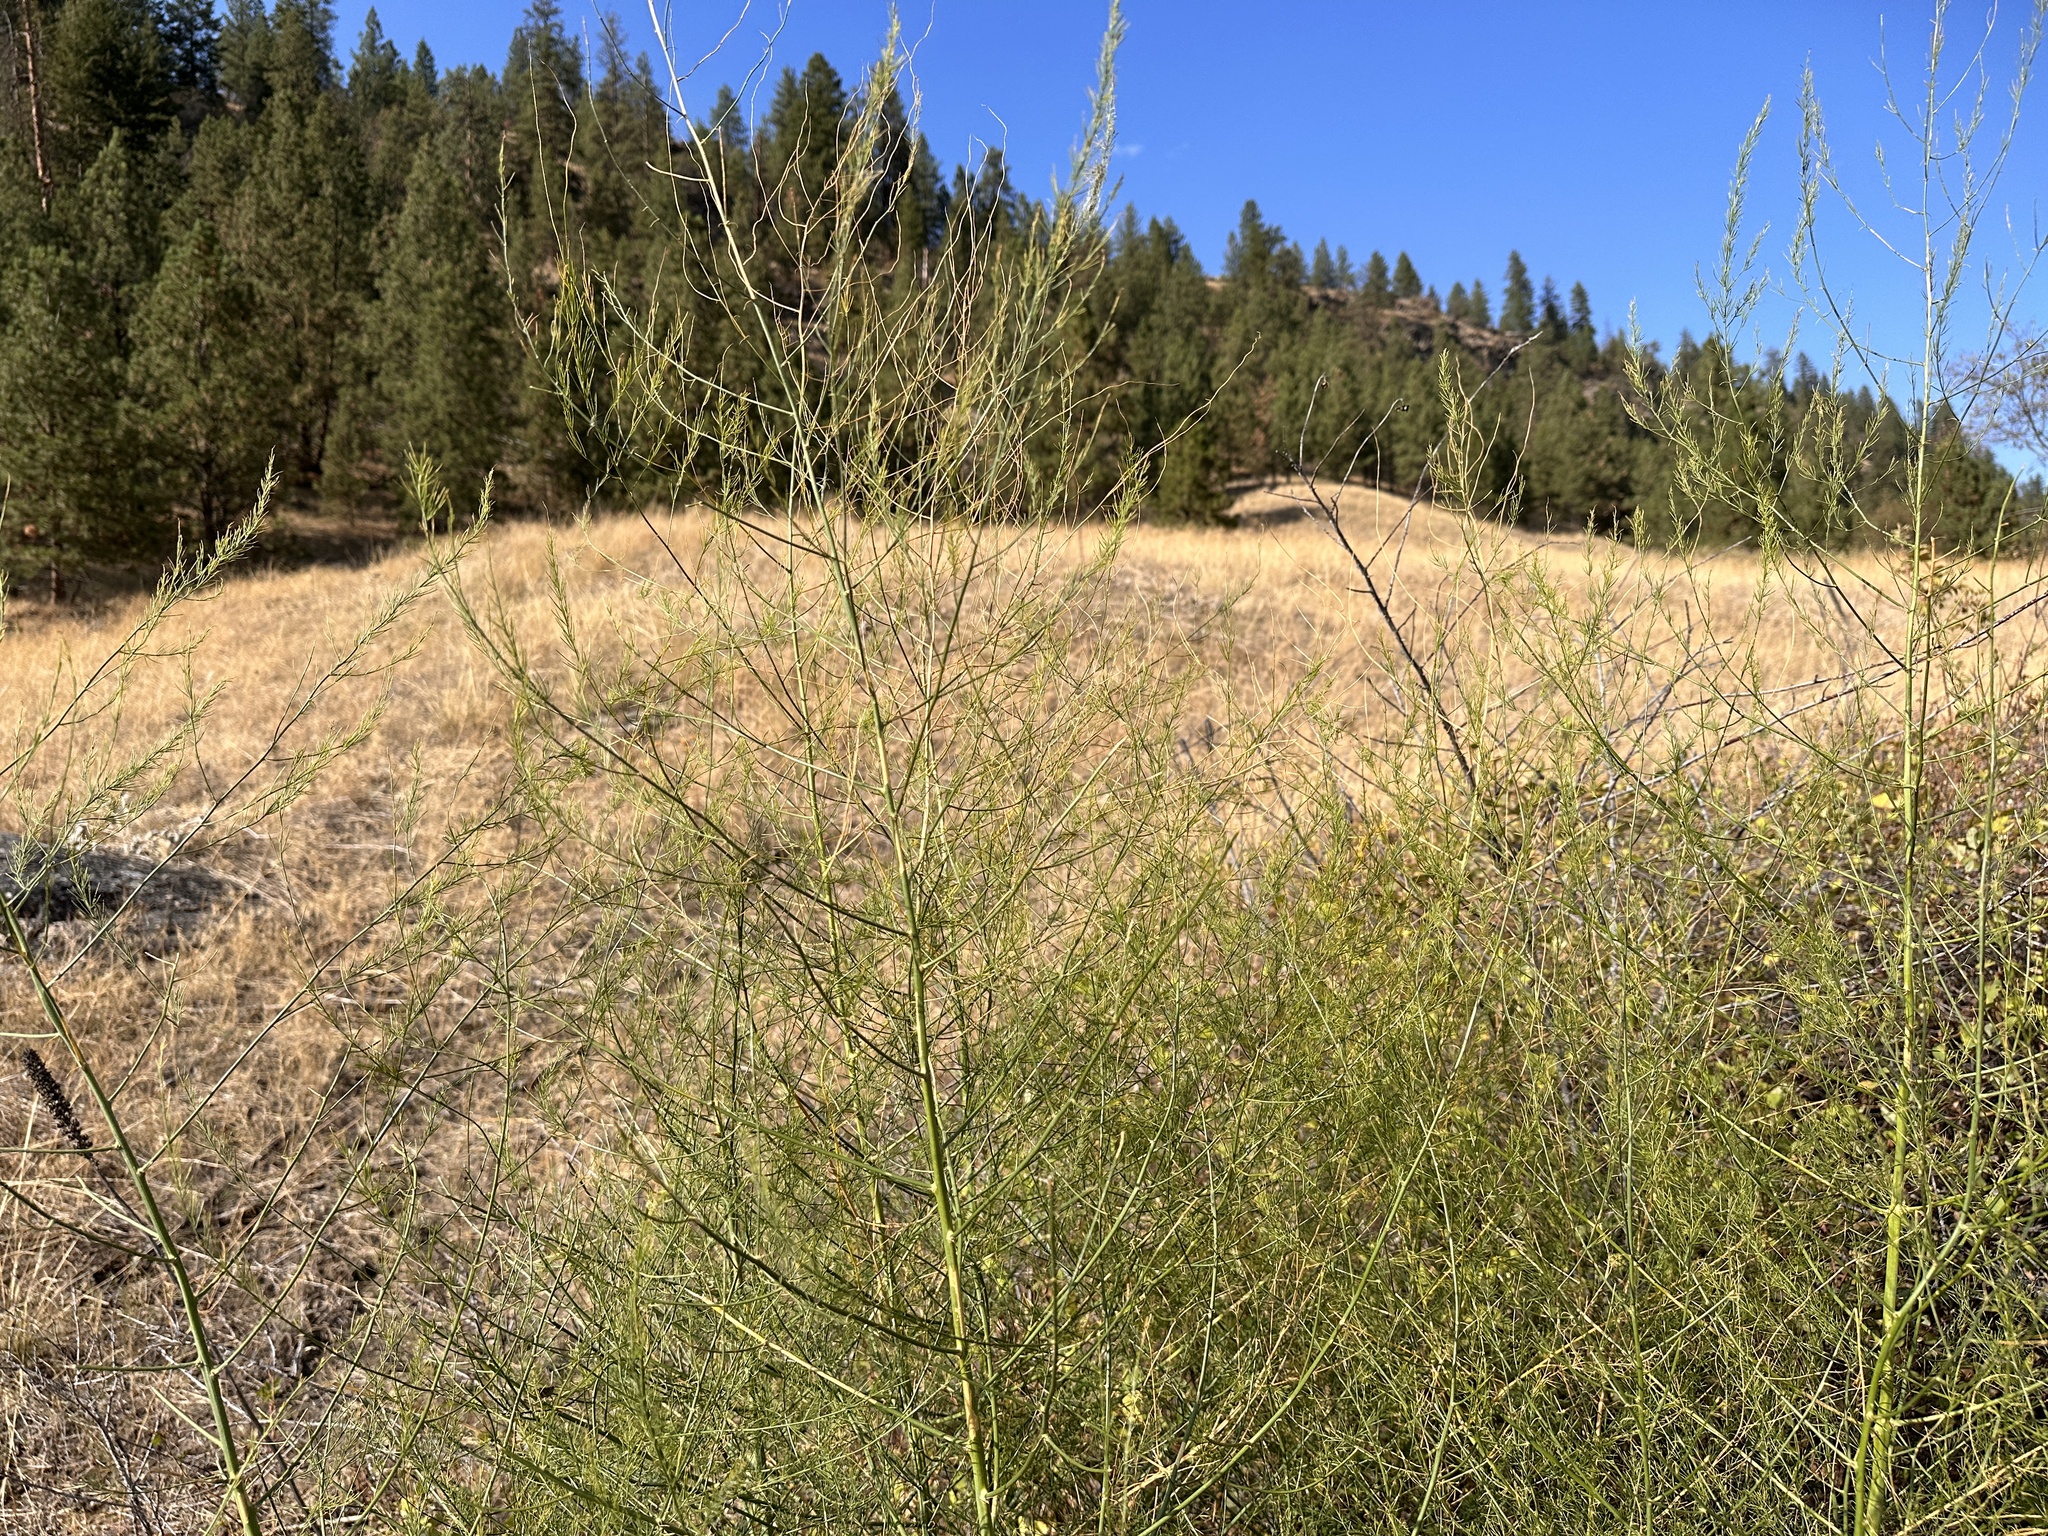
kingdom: Plantae
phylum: Tracheophyta
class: Liliopsida
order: Asparagales
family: Asparagaceae
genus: Asparagus
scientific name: Asparagus officinalis
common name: Garden asparagus
